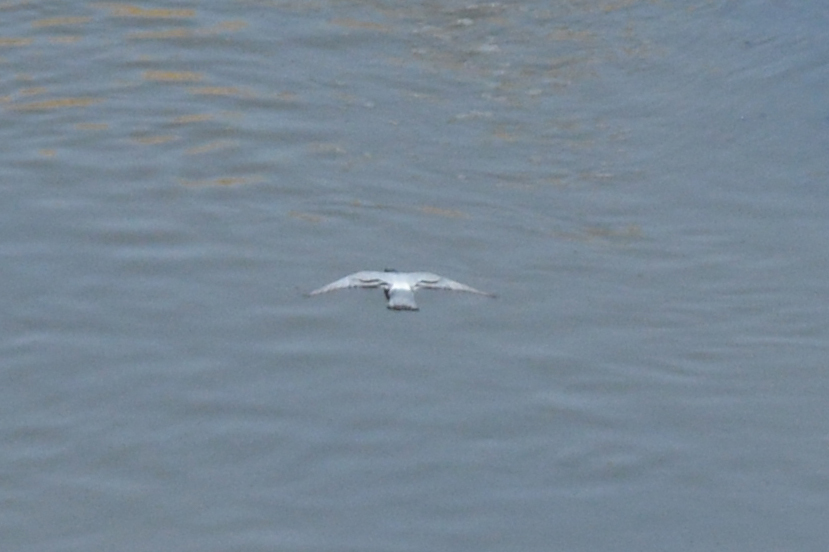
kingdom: Animalia
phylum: Chordata
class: Aves
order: Columbiformes
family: Columbidae
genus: Columba
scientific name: Columba livia
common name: Rock pigeon
